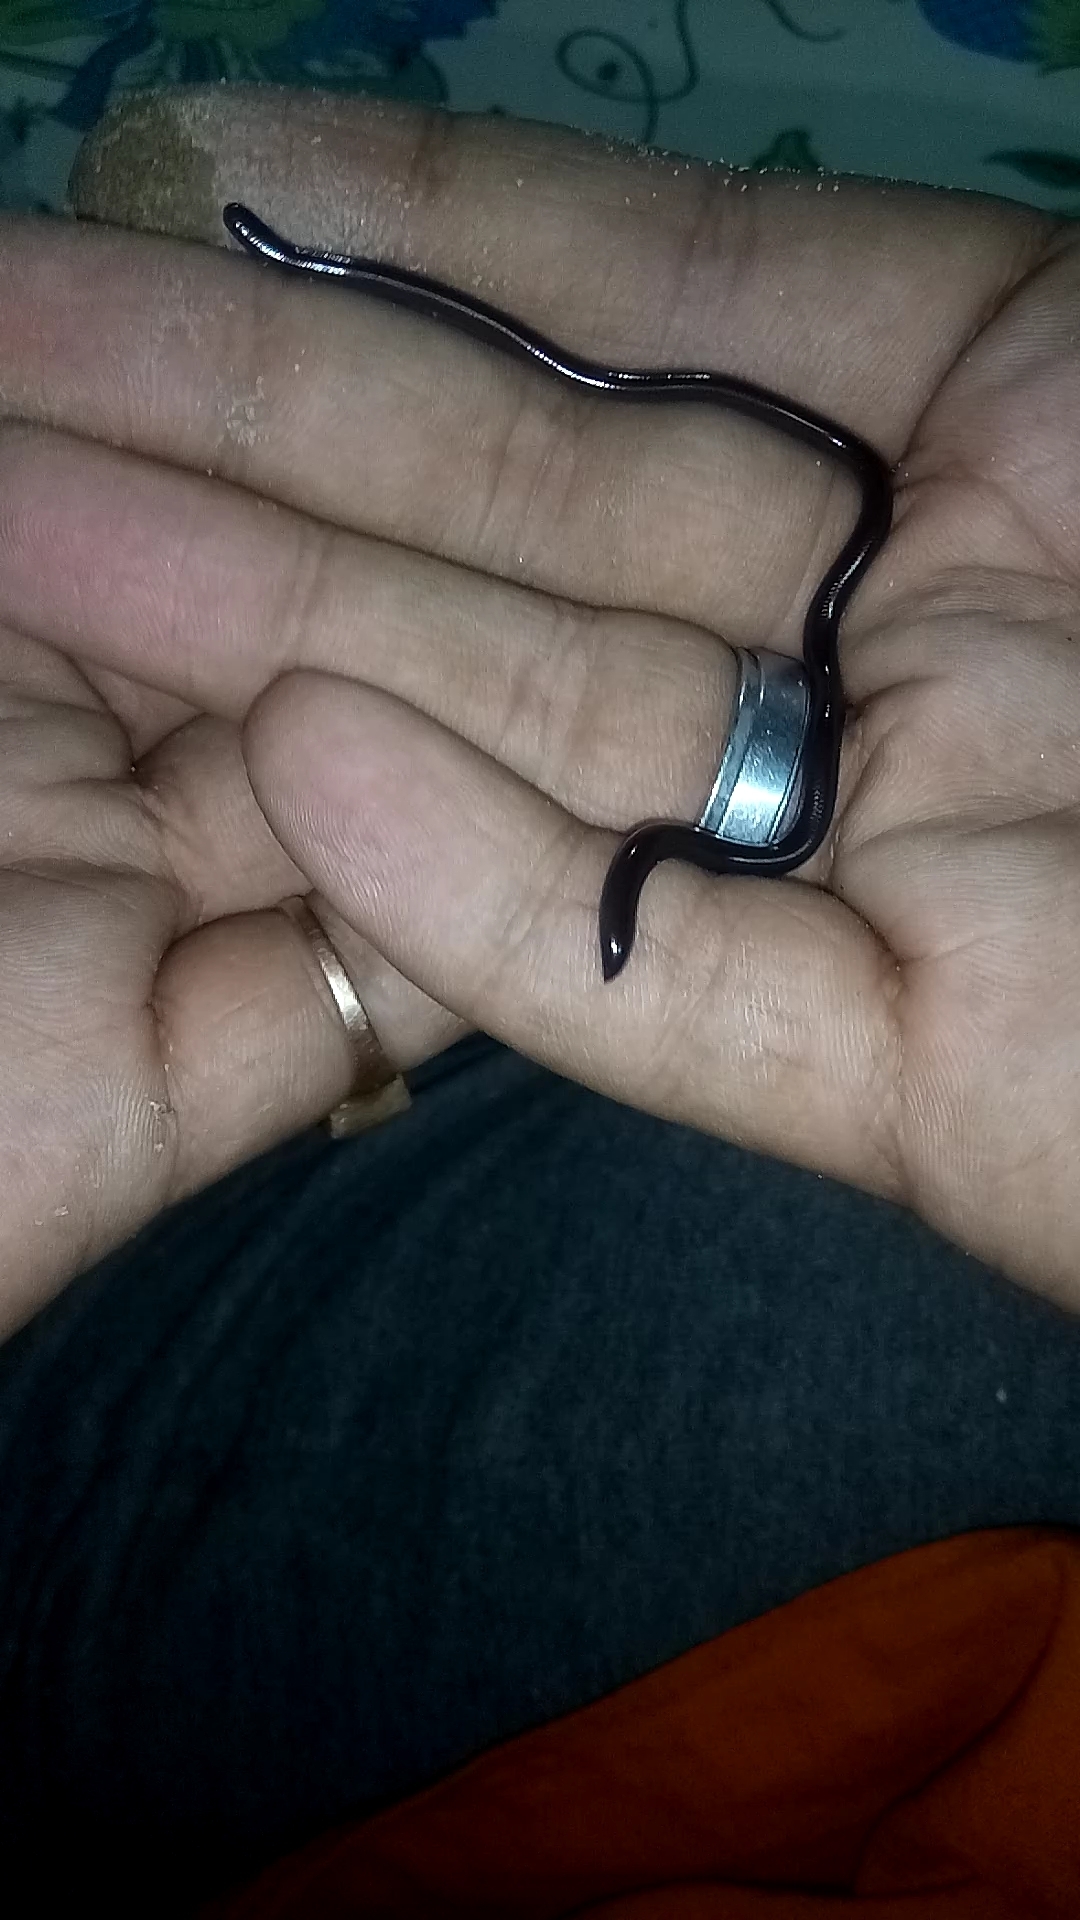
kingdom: Animalia
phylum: Chordata
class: Squamata
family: Typhlopidae
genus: Indotyphlops
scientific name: Indotyphlops braminus
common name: Brahminy blindsnake
